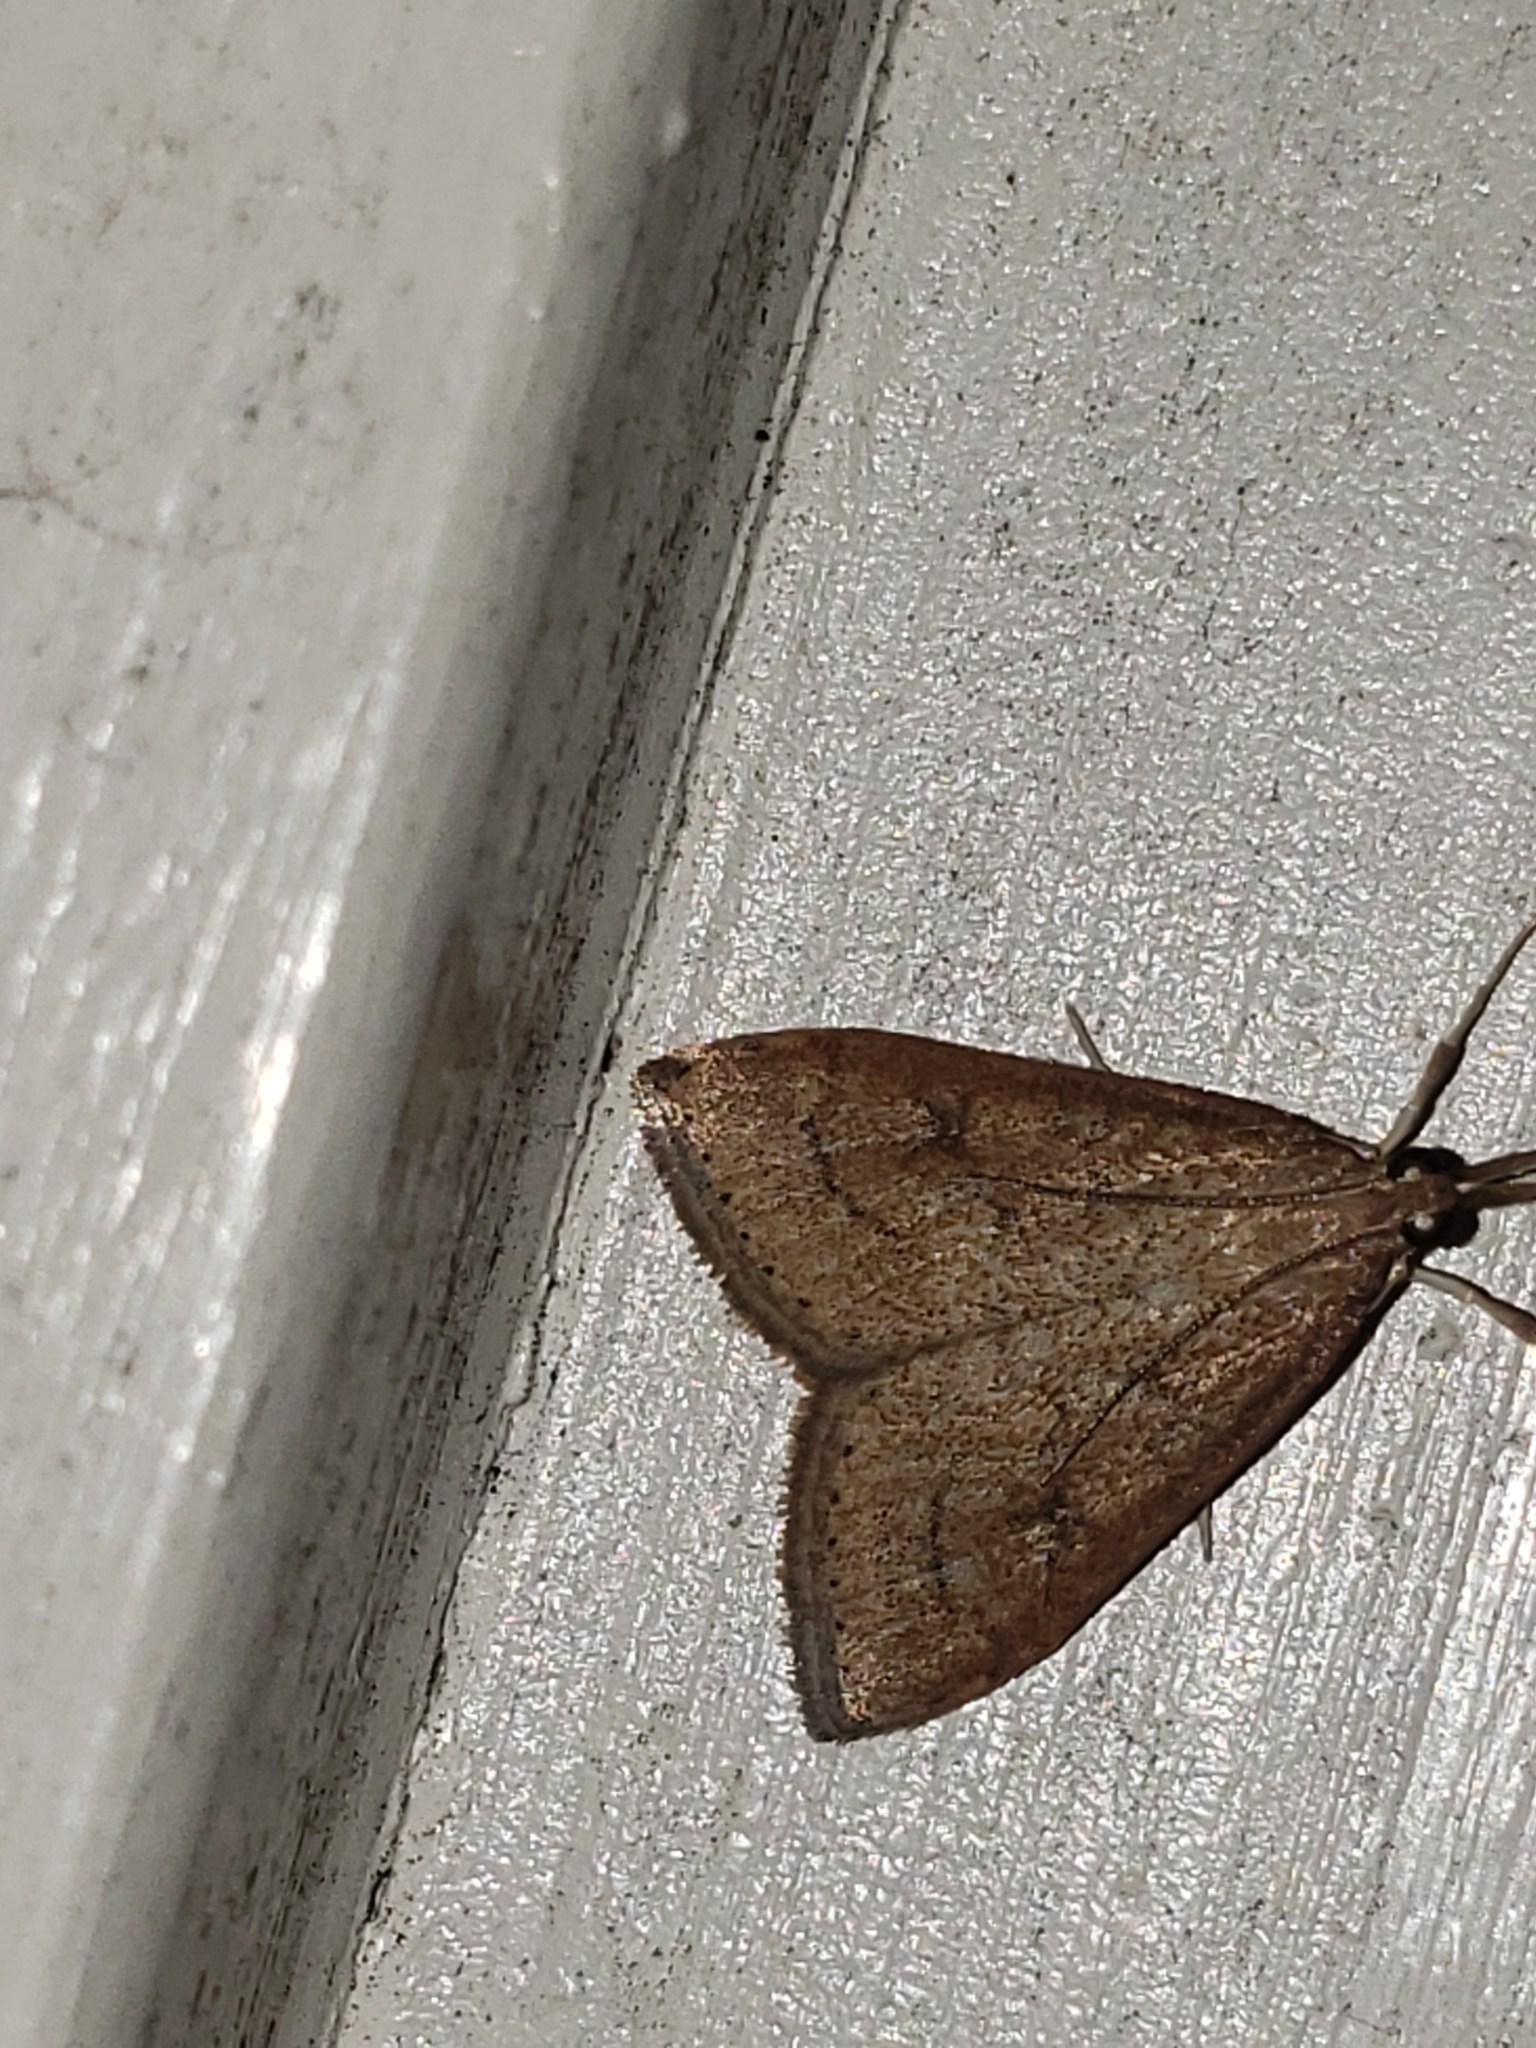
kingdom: Animalia
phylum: Arthropoda
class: Insecta
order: Lepidoptera
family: Crambidae
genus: Udea
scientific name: Udea rubigalis
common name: Celery leaftier moth
